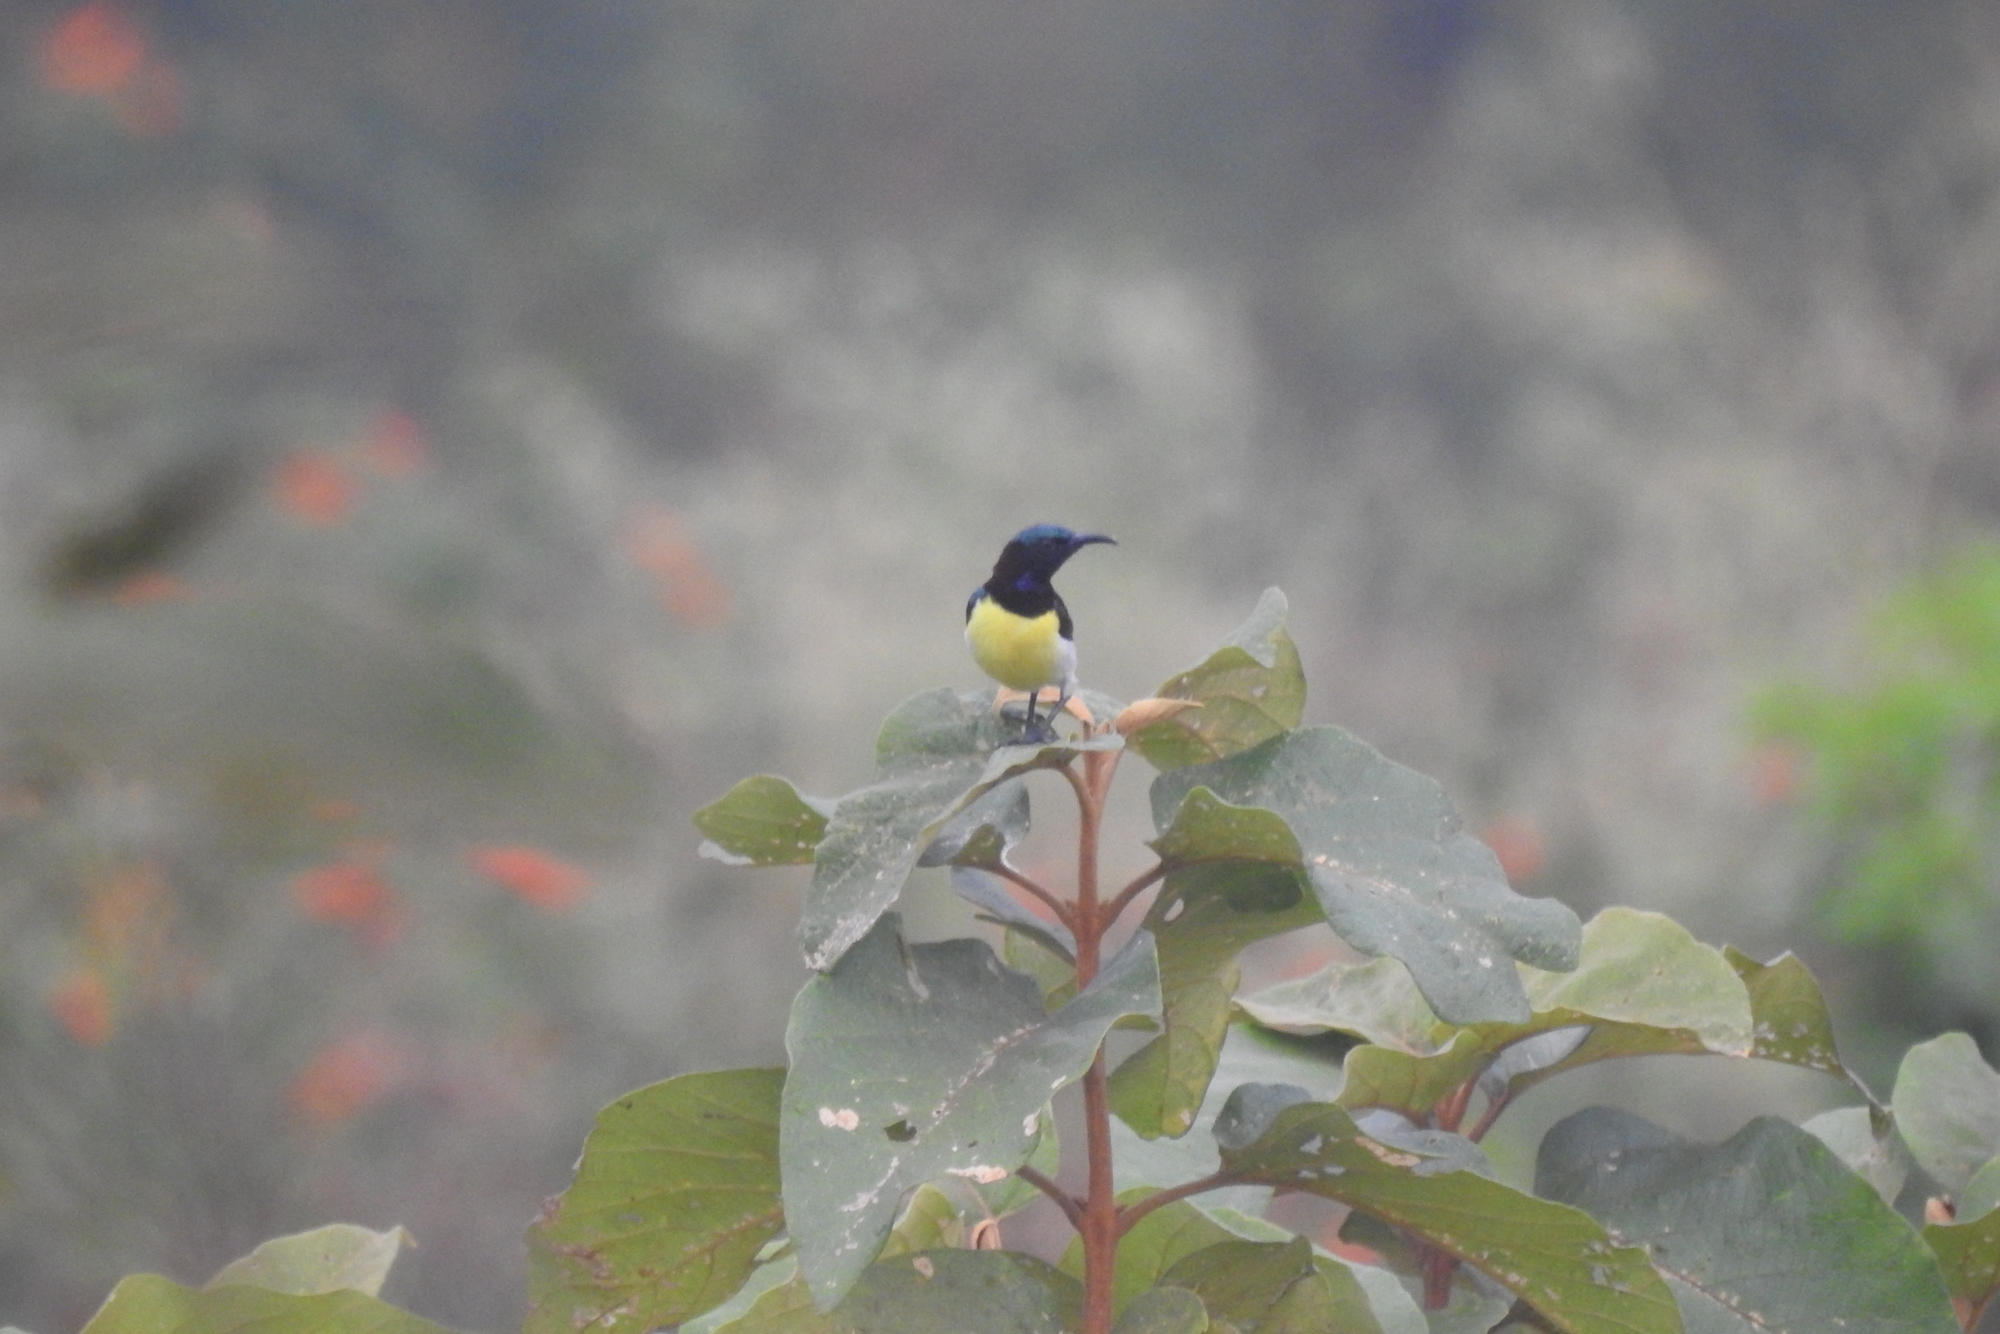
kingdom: Animalia
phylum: Chordata
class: Aves
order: Passeriformes
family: Nectariniidae
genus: Leptocoma
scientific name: Leptocoma zeylonica
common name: Purple-rumped sunbird
